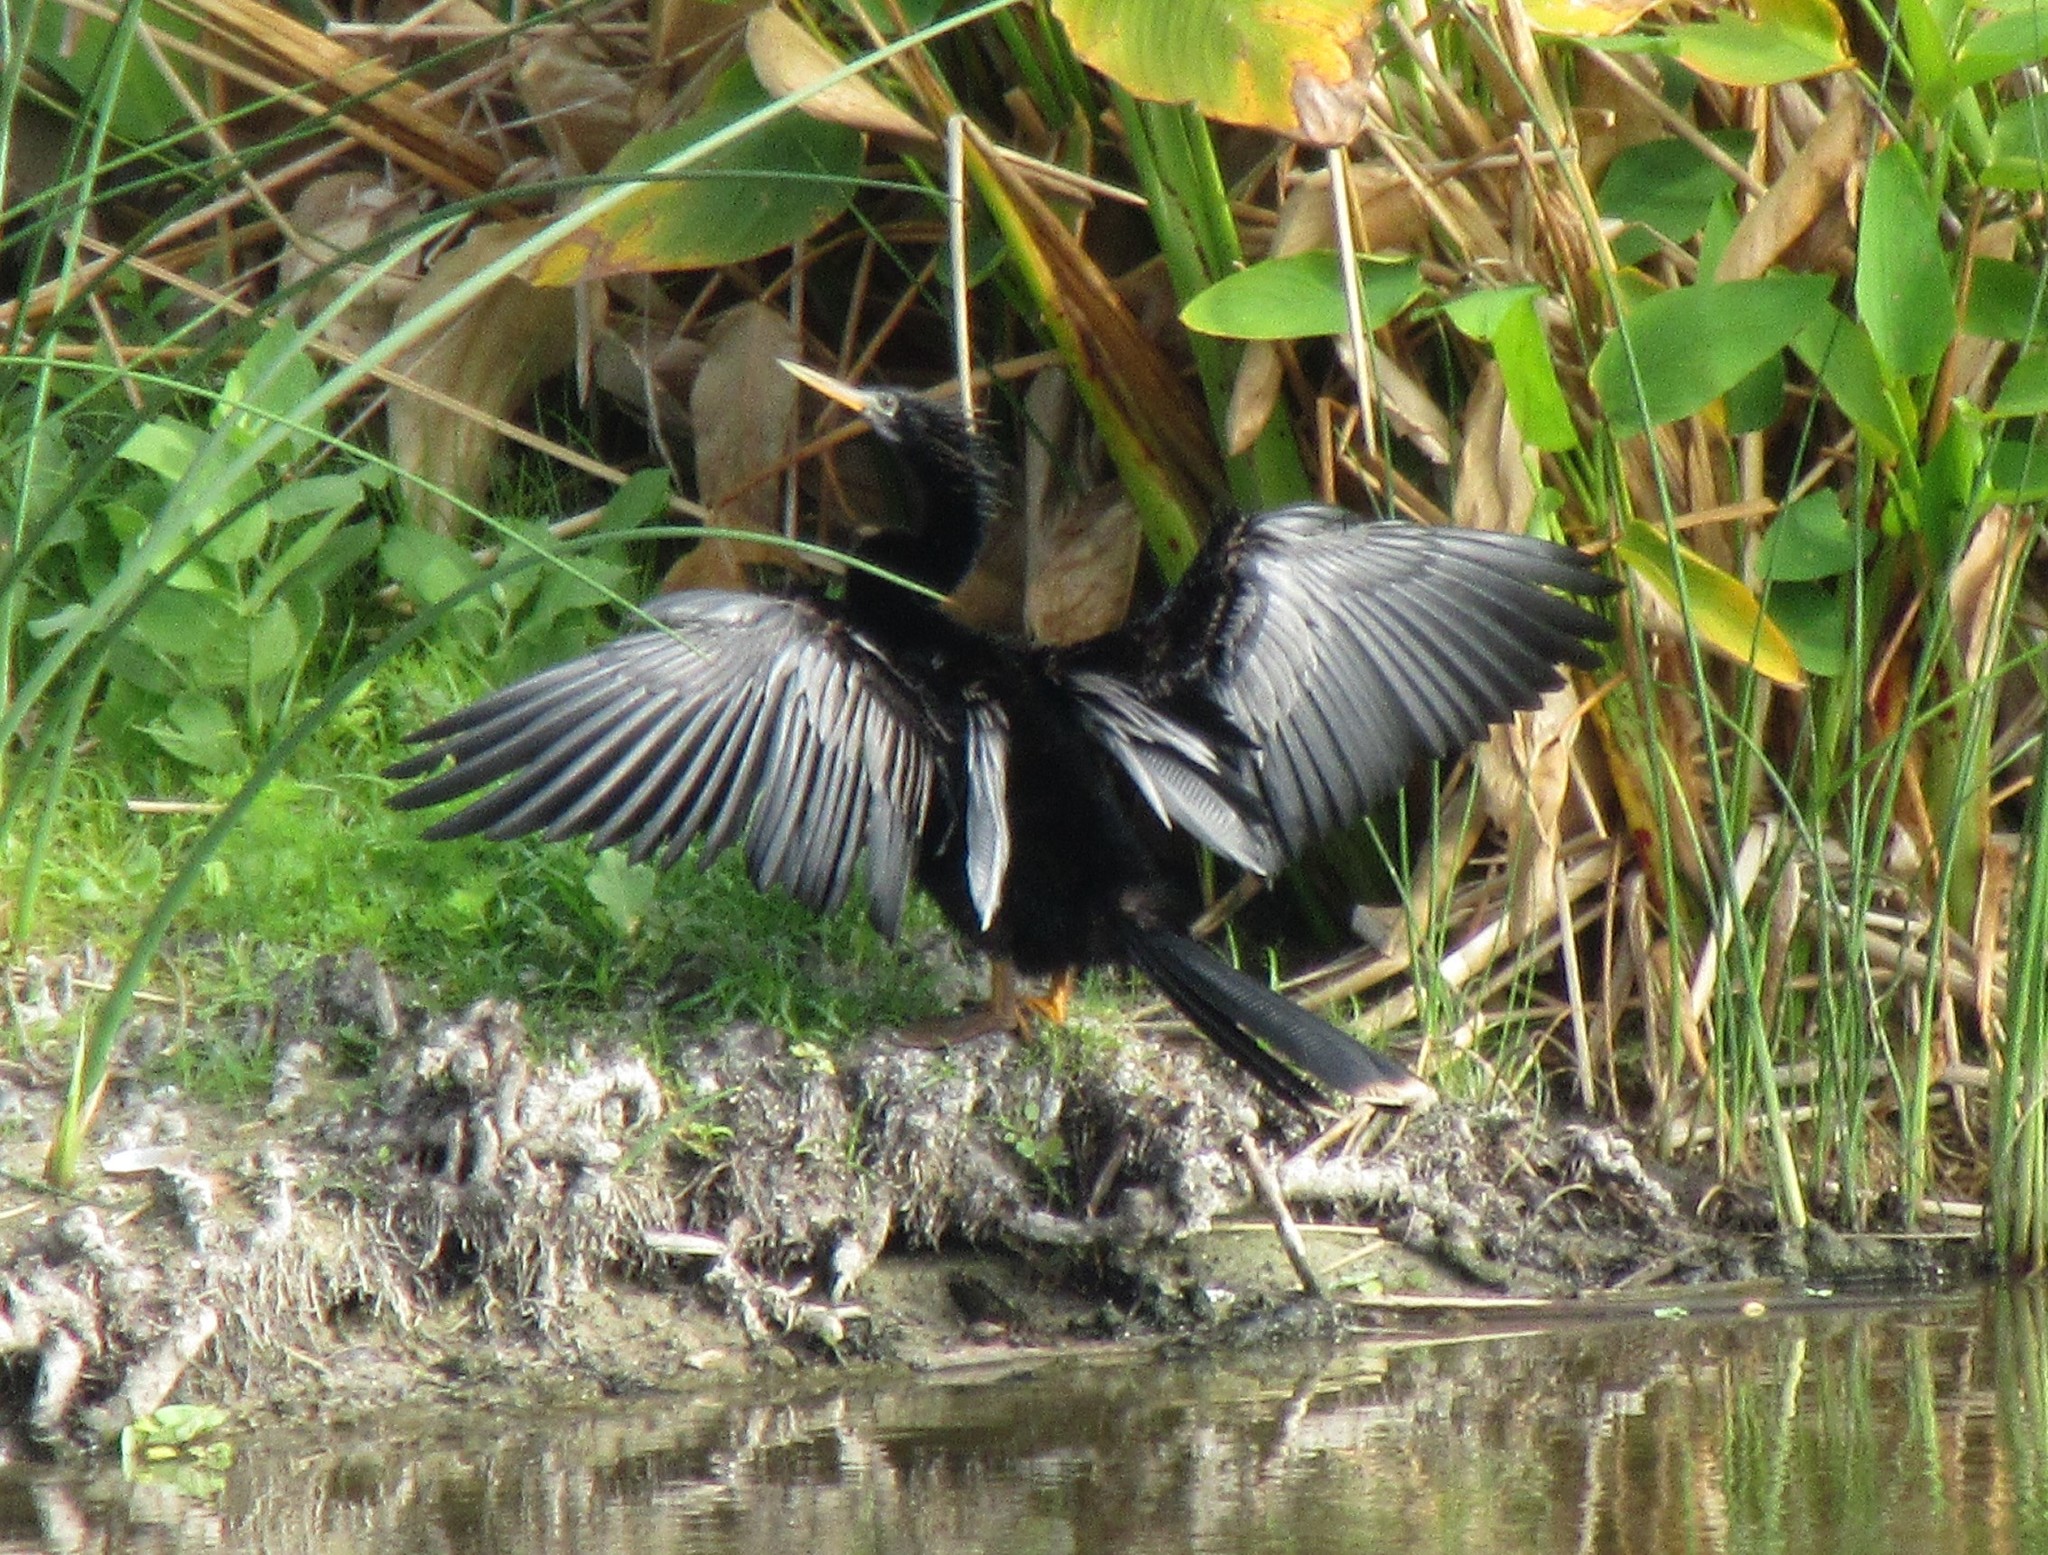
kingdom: Animalia
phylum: Chordata
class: Aves
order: Suliformes
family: Anhingidae
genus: Anhinga
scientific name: Anhinga anhinga
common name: Anhinga
